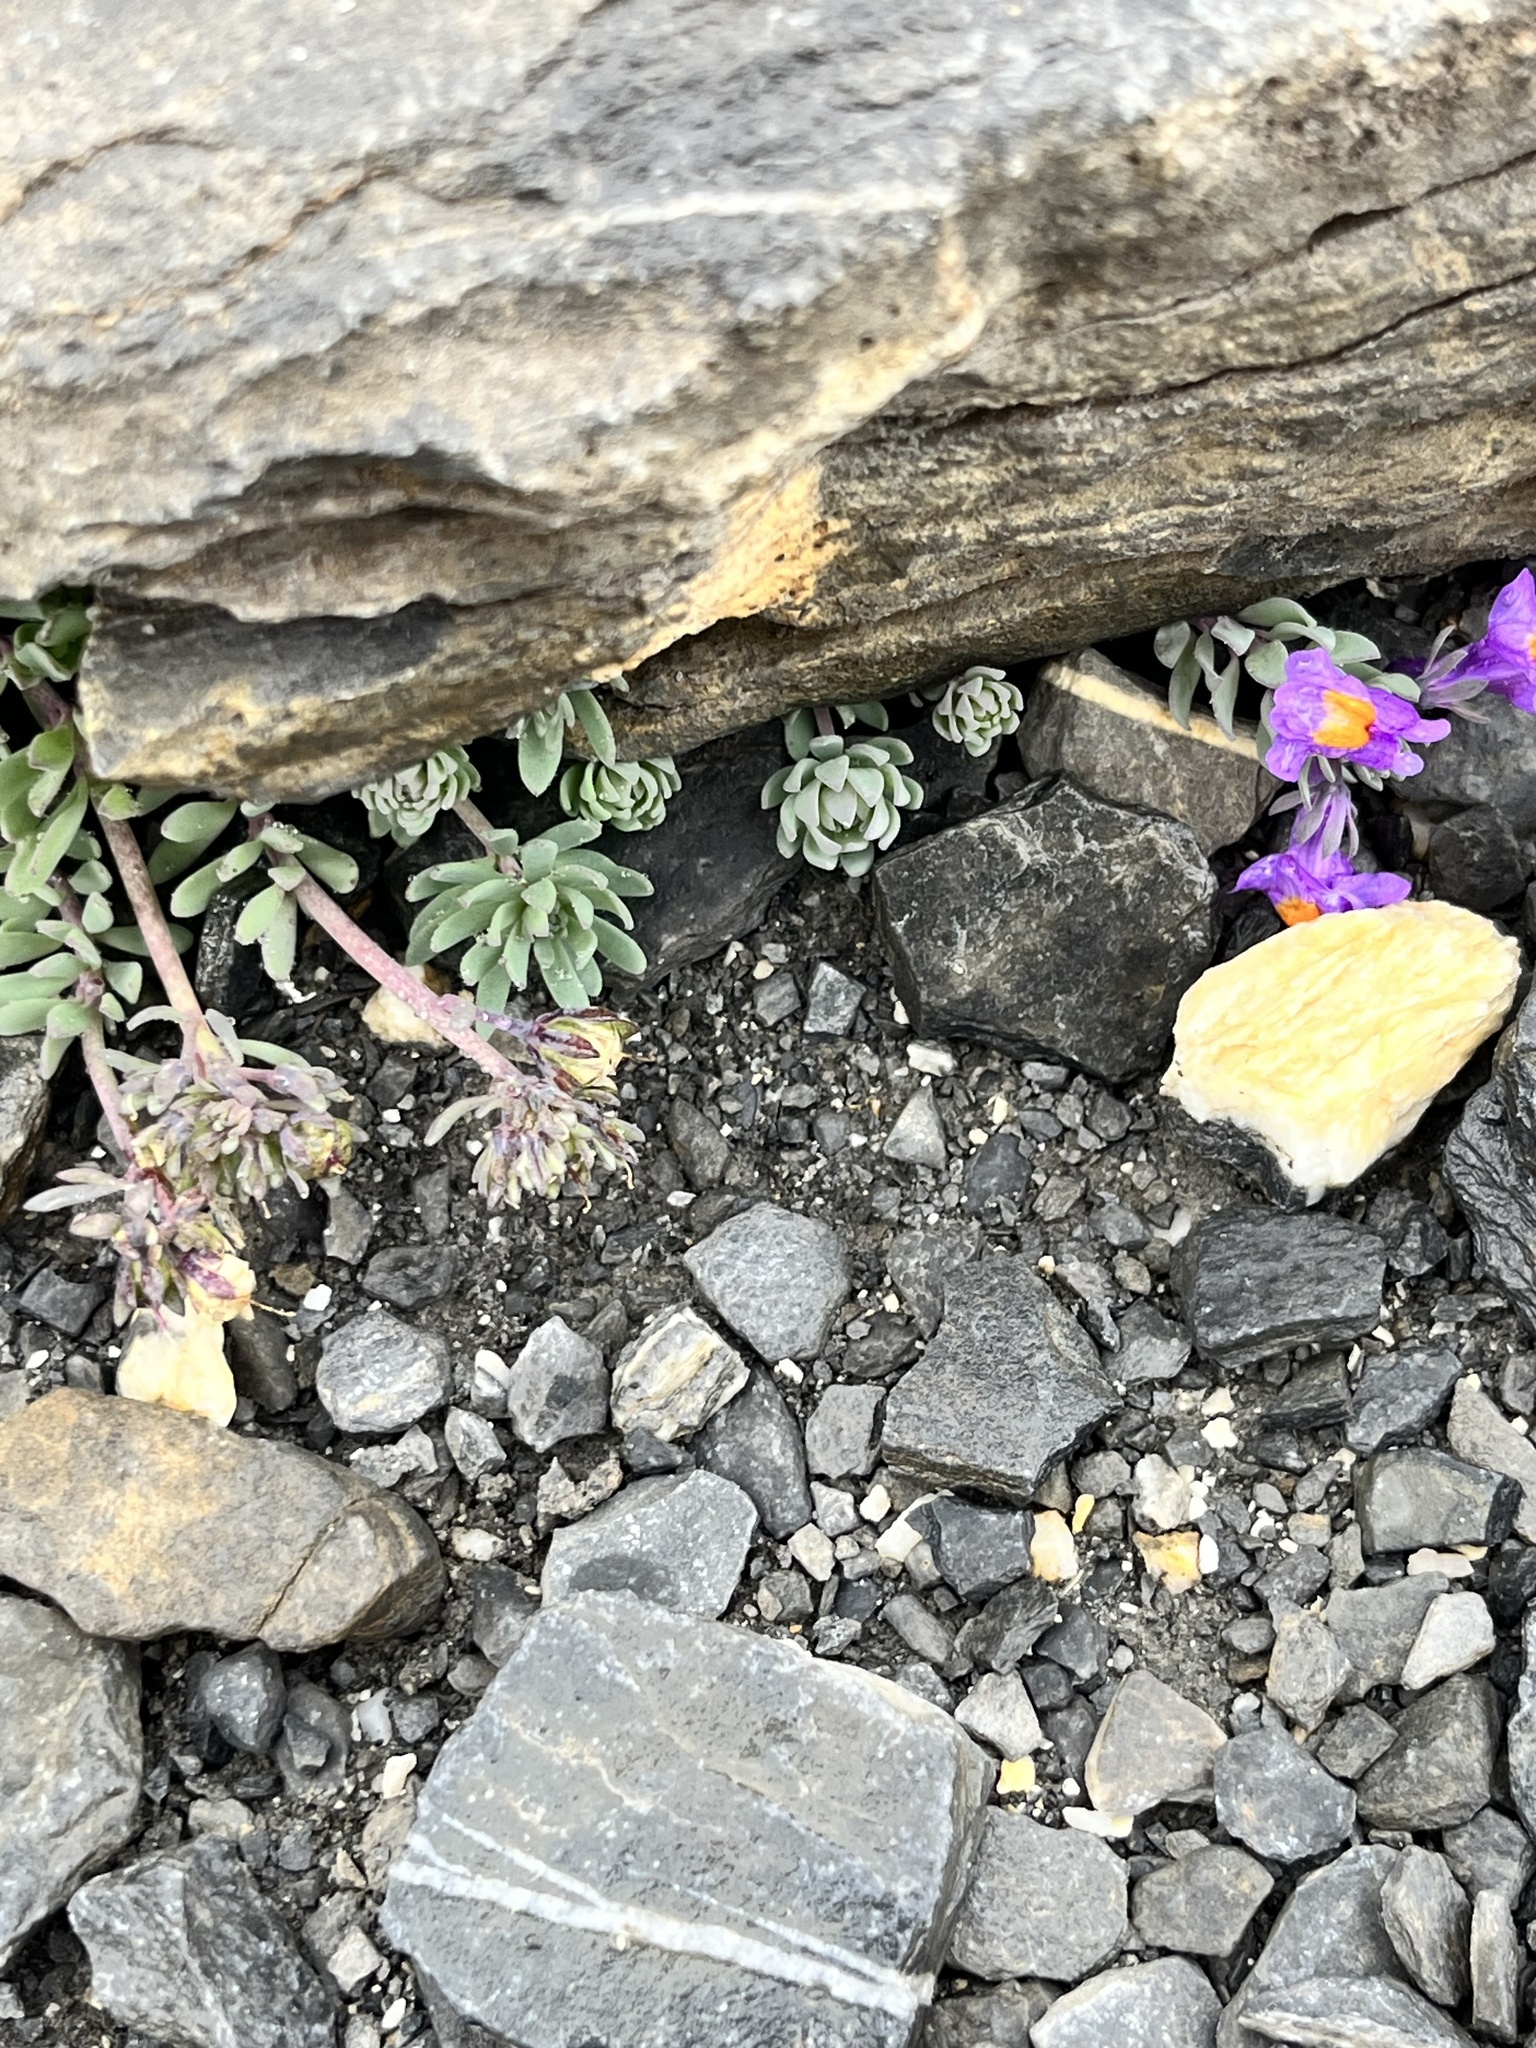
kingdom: Plantae
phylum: Tracheophyta
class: Magnoliopsida
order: Lamiales
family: Plantaginaceae
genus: Linaria
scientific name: Linaria alpina
